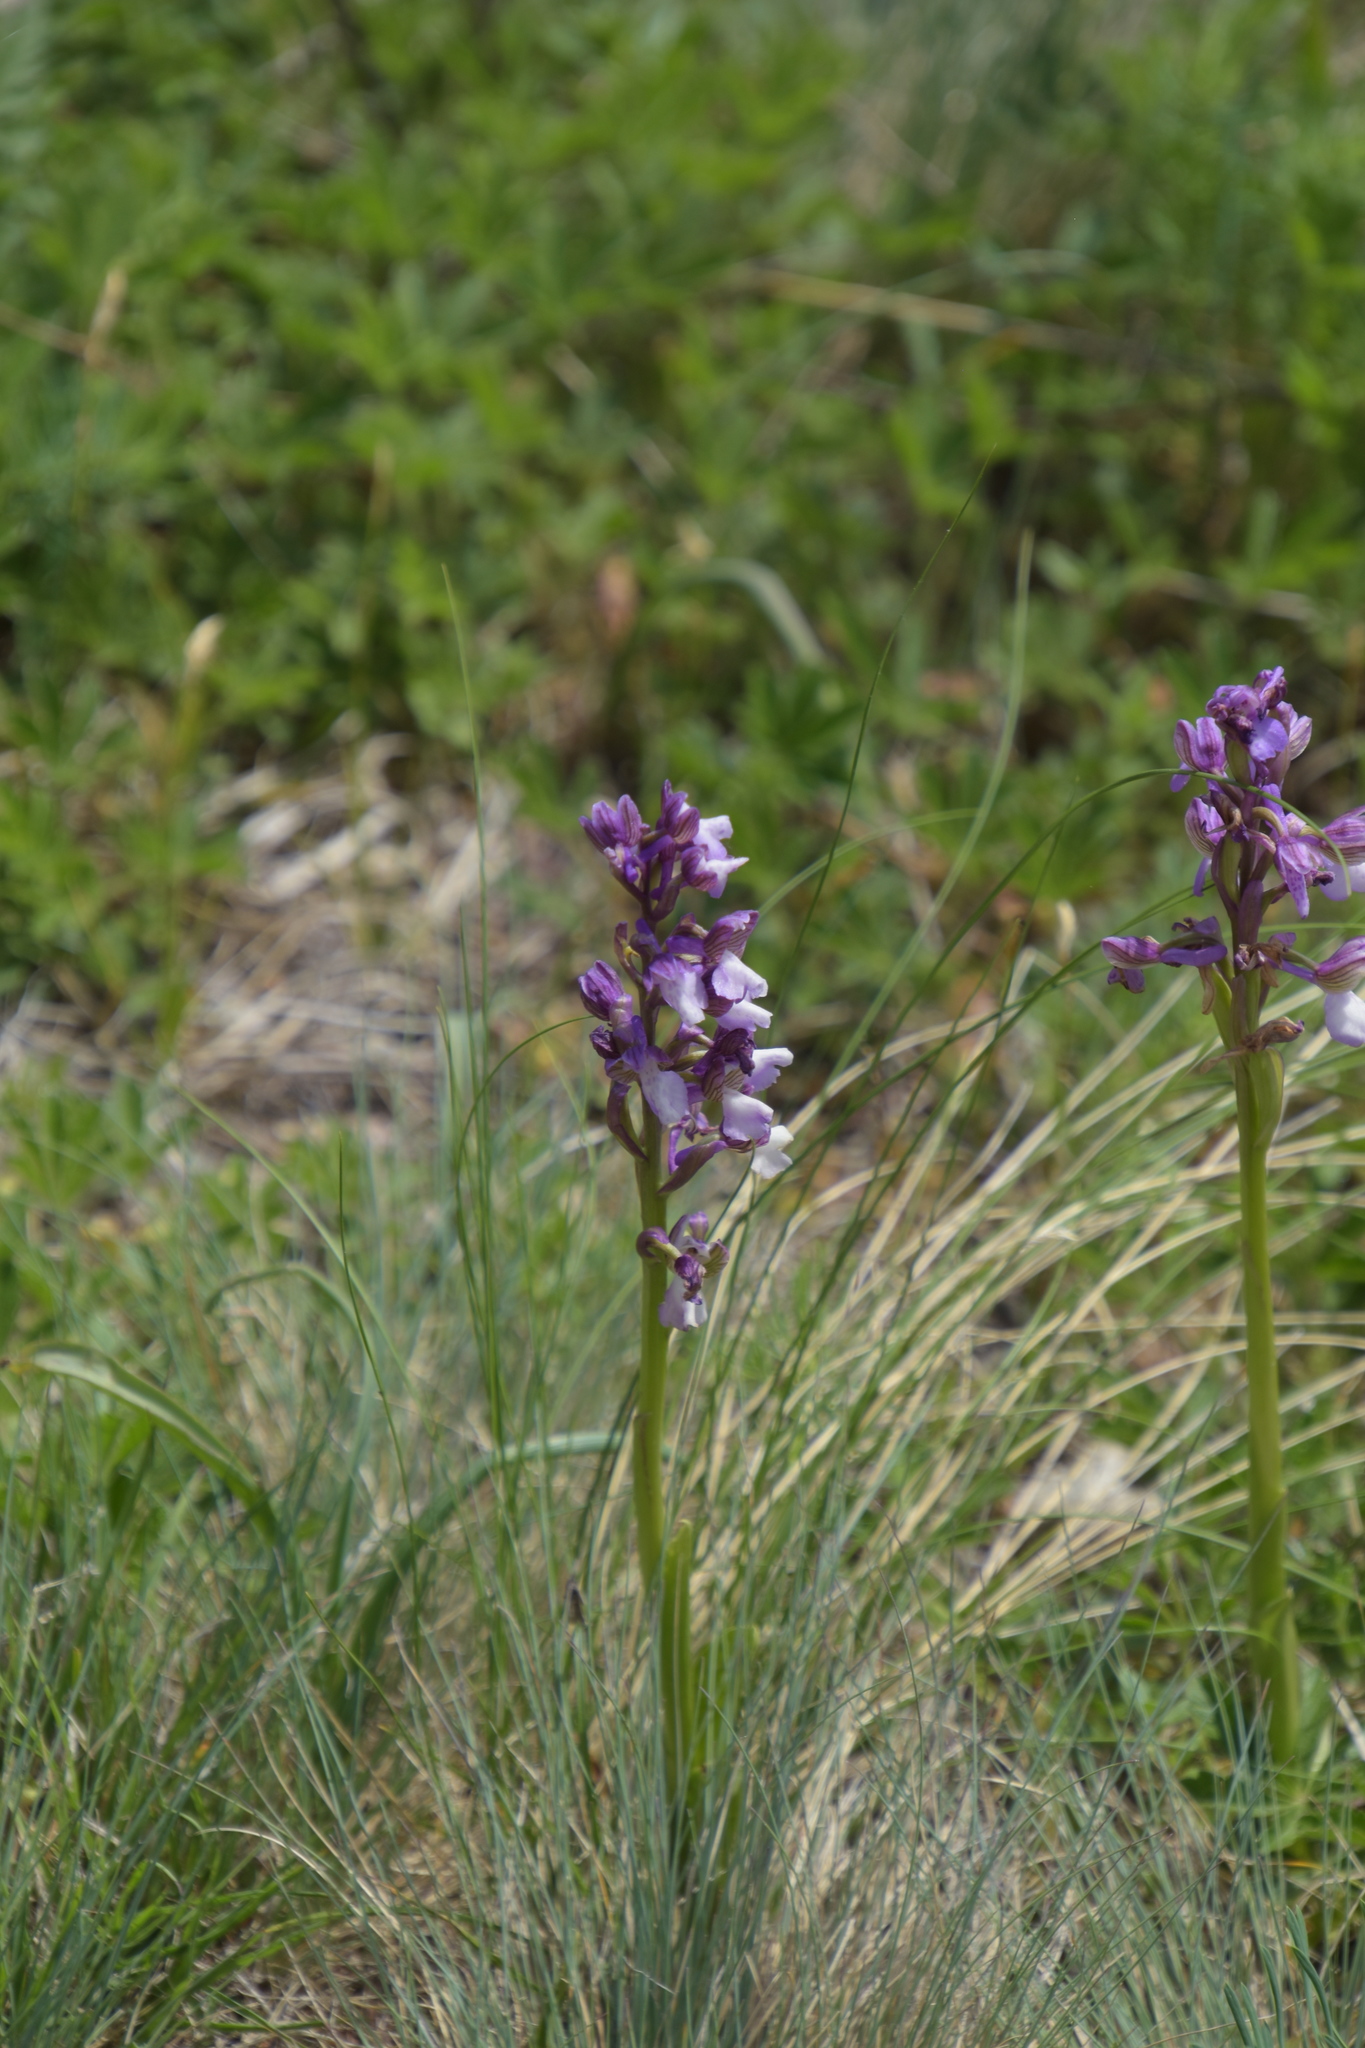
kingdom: Plantae
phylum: Tracheophyta
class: Liliopsida
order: Asparagales
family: Orchidaceae
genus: Anacamptis
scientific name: Anacamptis morio
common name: Green-winged orchid
